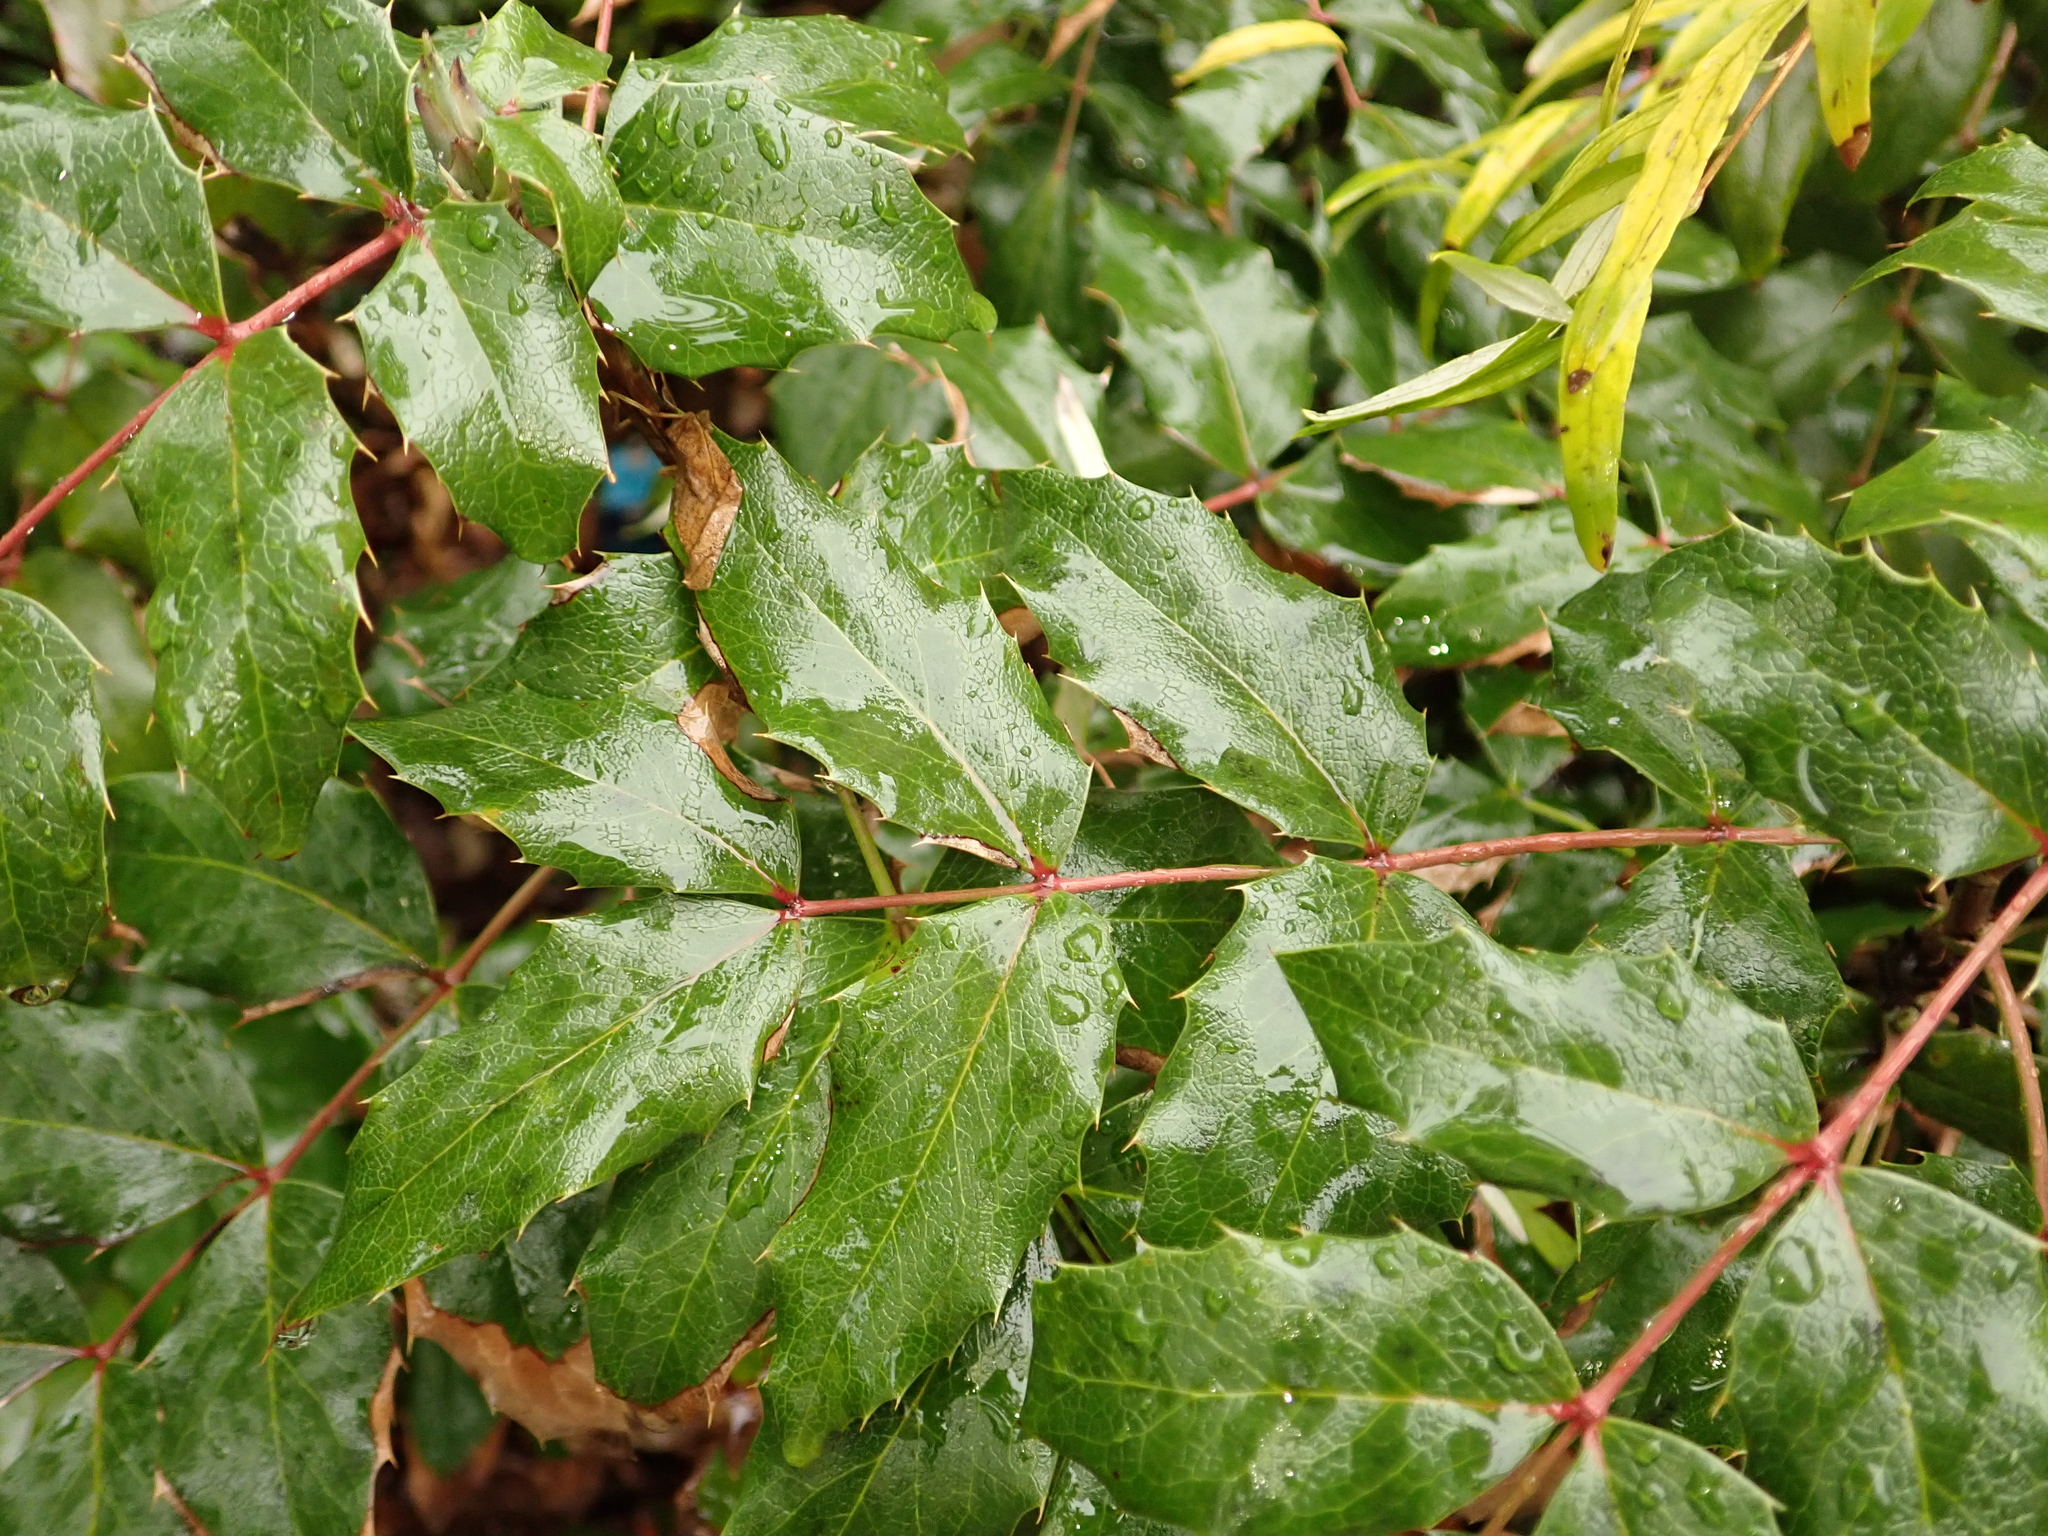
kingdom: Plantae
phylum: Tracheophyta
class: Magnoliopsida
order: Ranunculales
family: Berberidaceae
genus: Mahonia
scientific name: Mahonia aquifolium
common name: Oregon-grape
